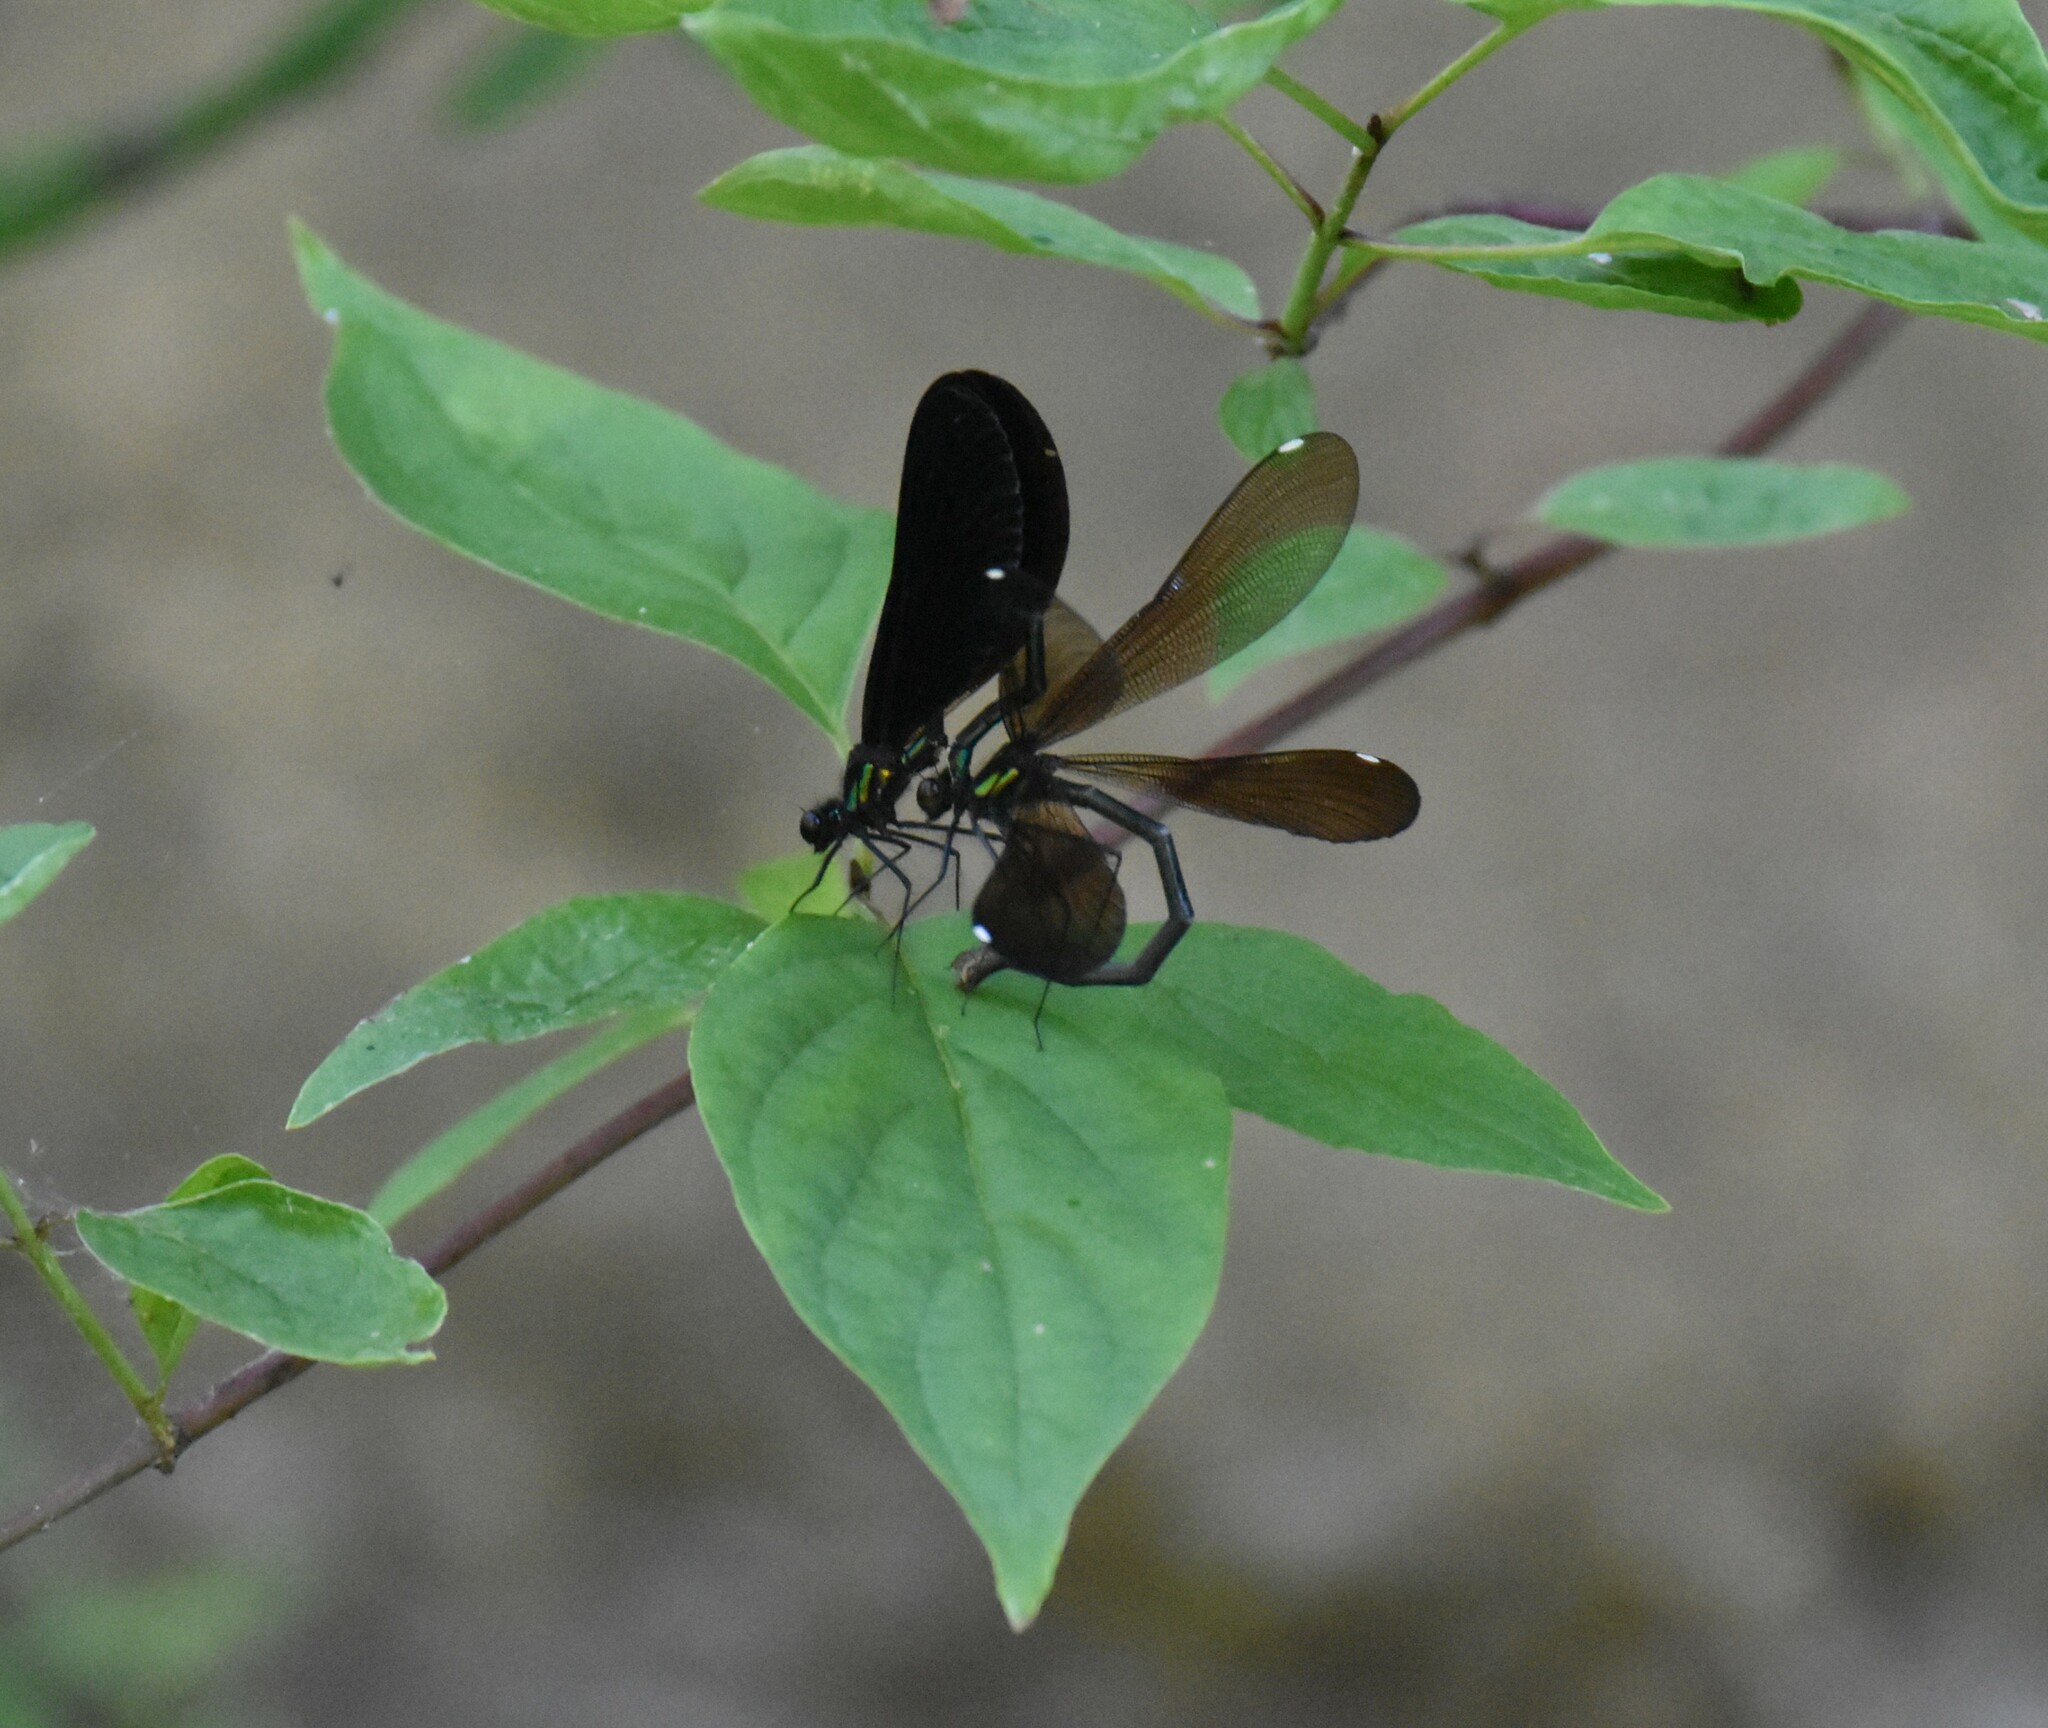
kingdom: Animalia
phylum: Arthropoda
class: Insecta
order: Odonata
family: Calopterygidae
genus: Calopteryx
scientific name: Calopteryx maculata
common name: Ebony jewelwing
